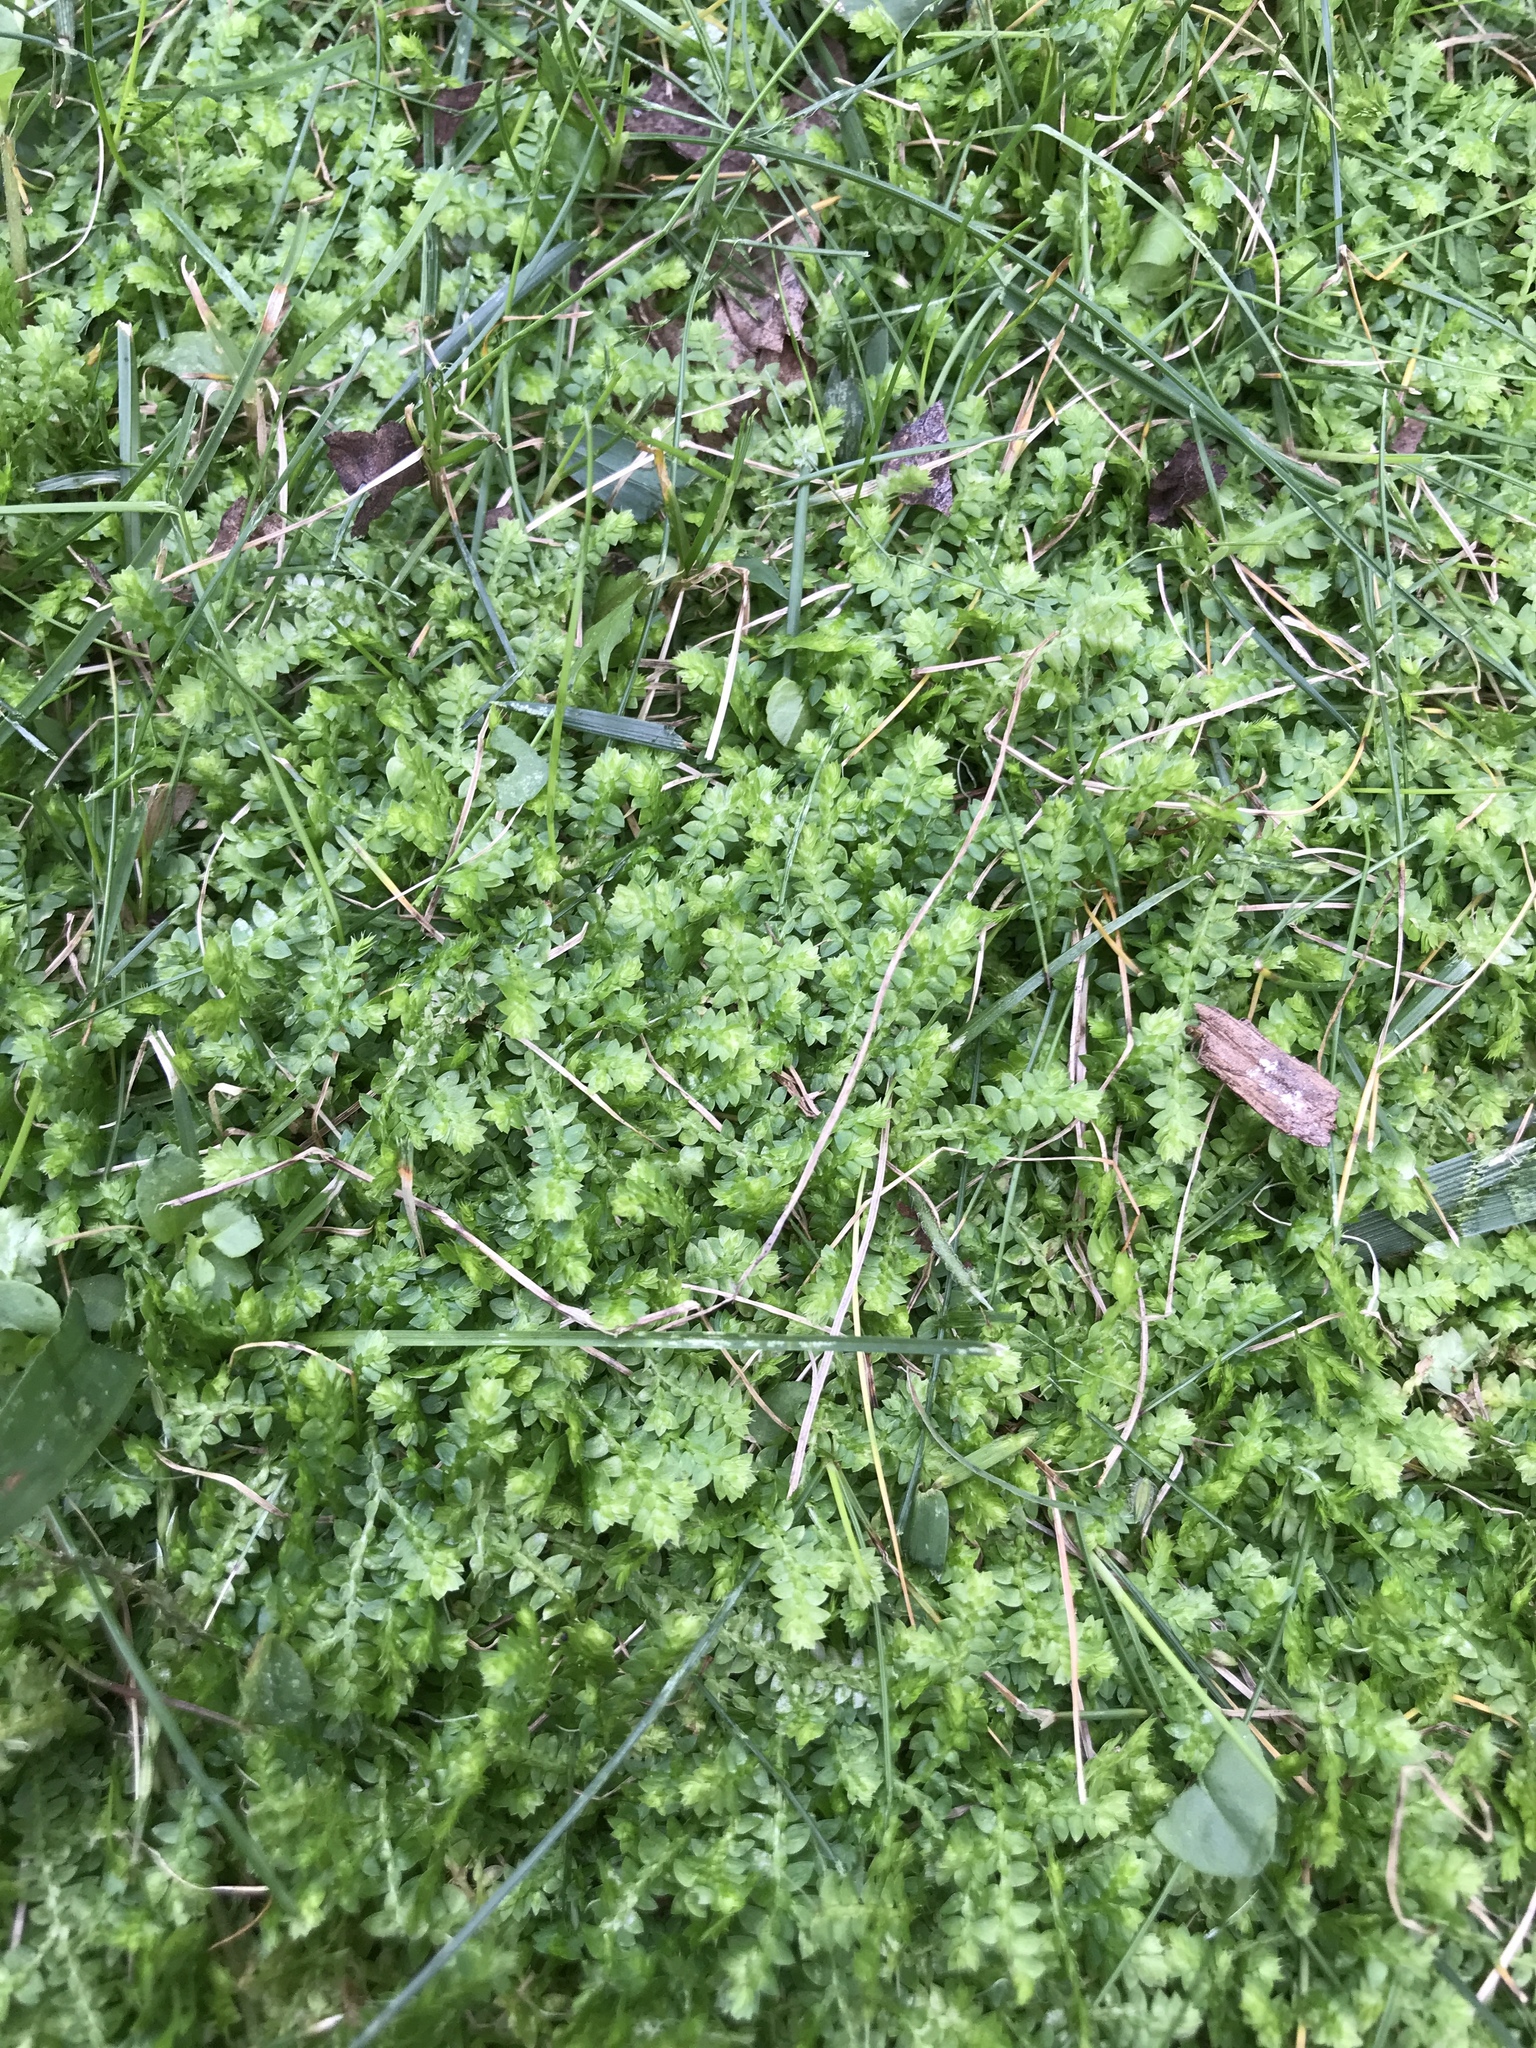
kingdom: Plantae
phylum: Tracheophyta
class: Lycopodiopsida
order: Selaginellales
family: Selaginellaceae
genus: Selaginella
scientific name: Selaginella kraussiana
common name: Krauss' spikemoss
